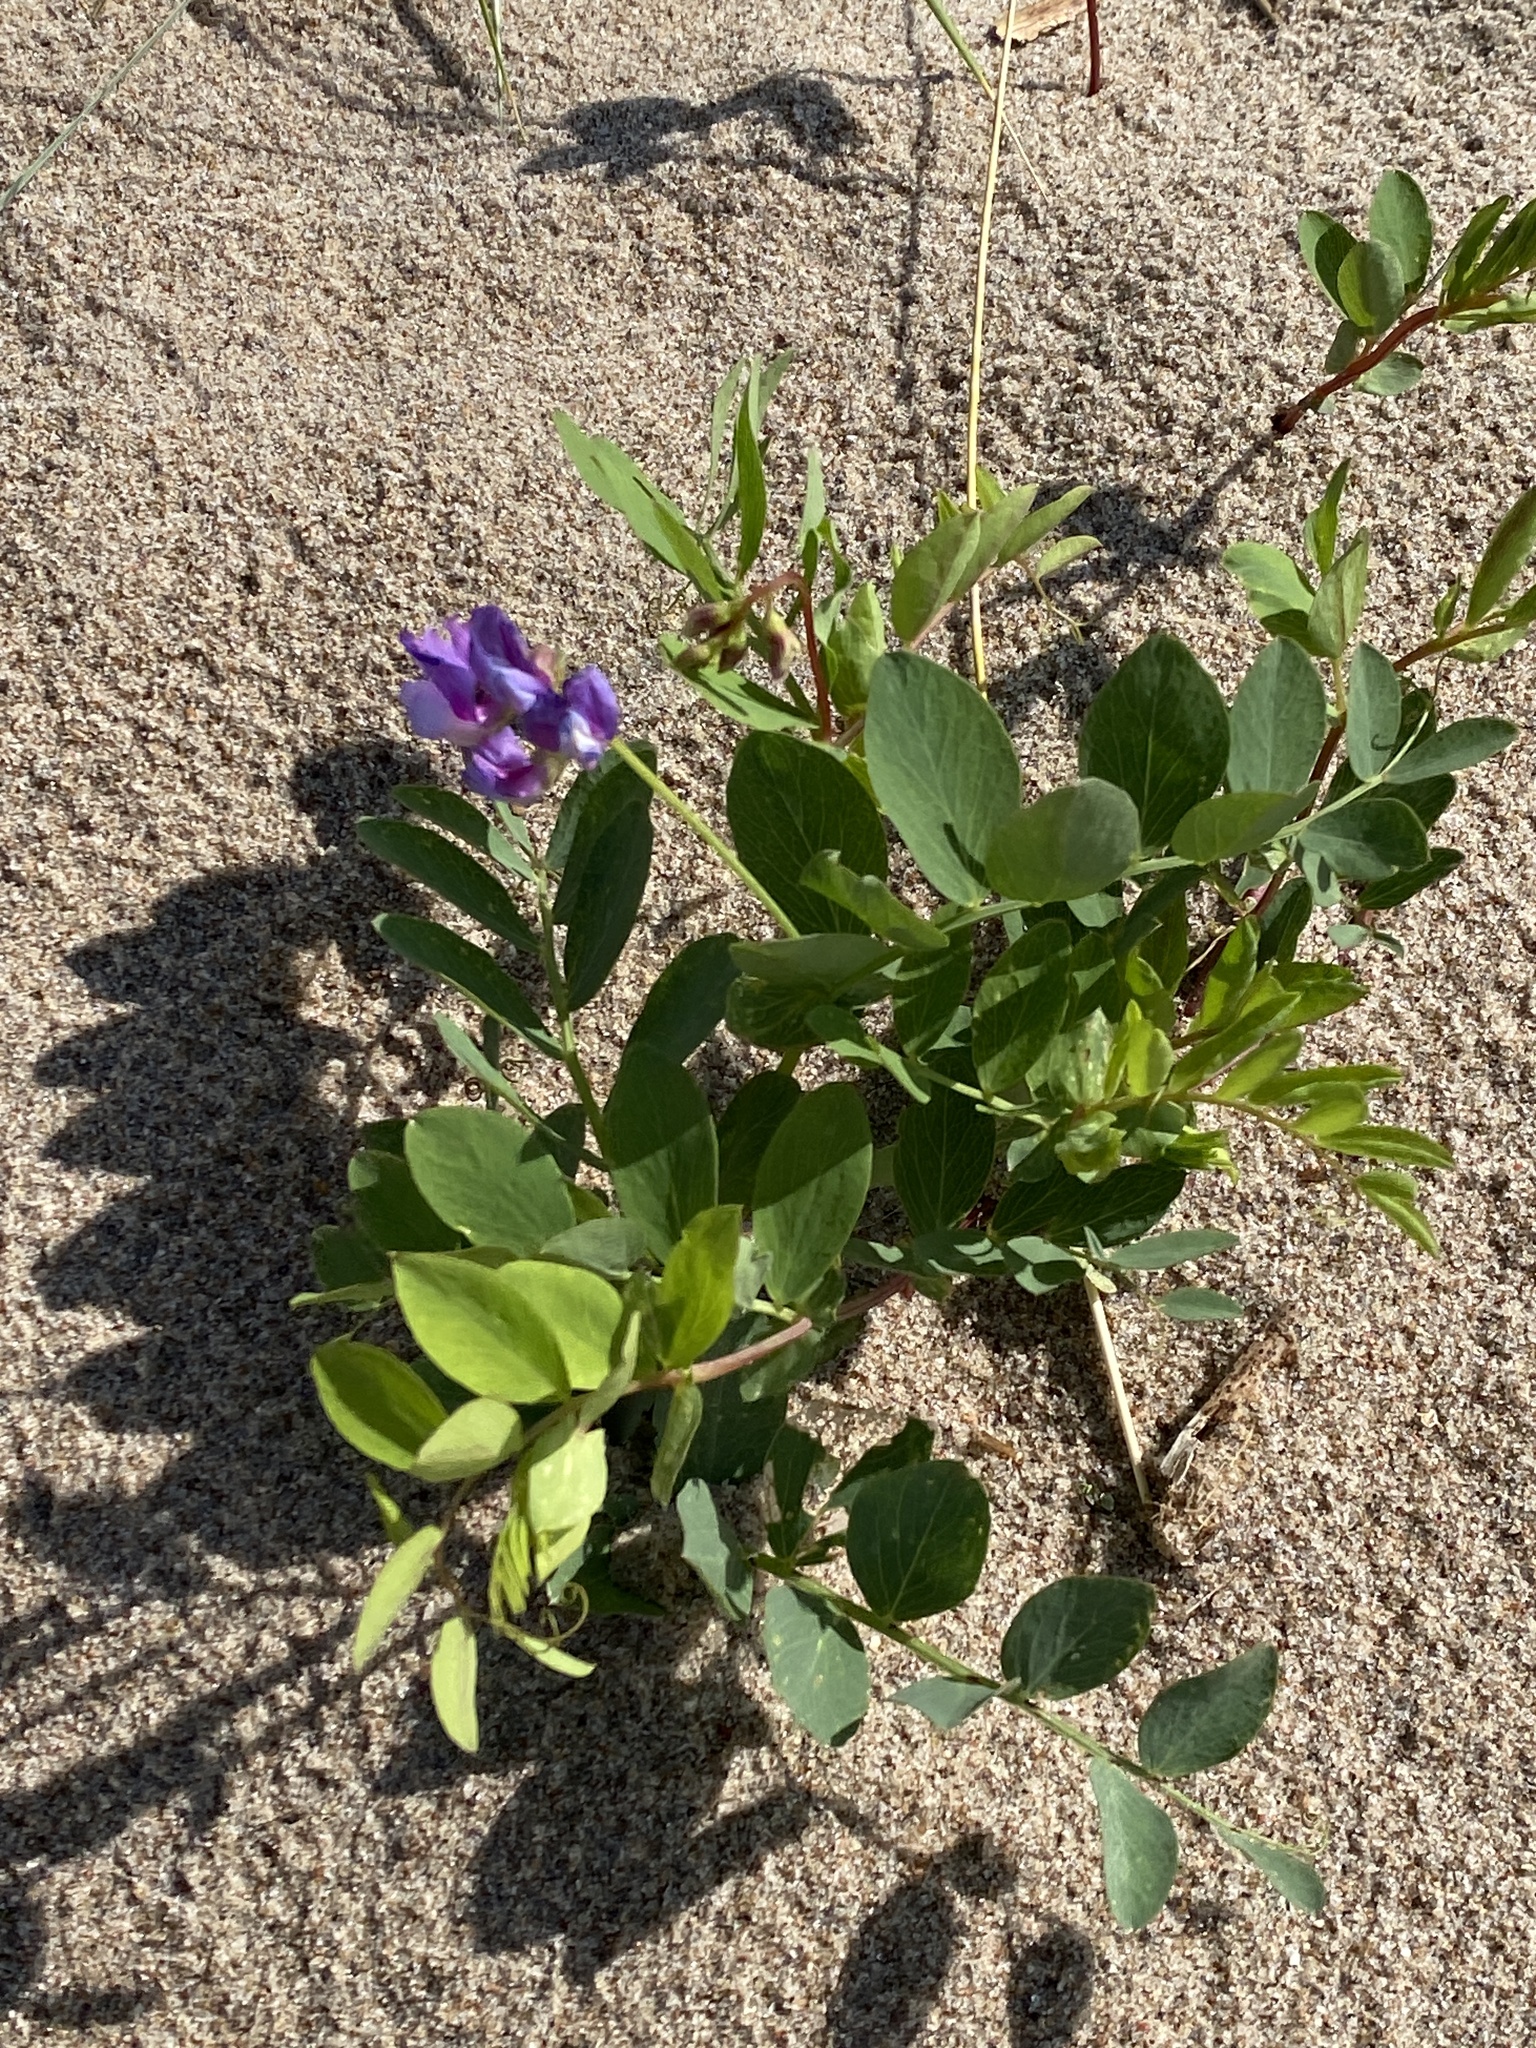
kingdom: Plantae
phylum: Tracheophyta
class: Magnoliopsida
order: Fabales
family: Fabaceae
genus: Lathyrus
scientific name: Lathyrus japonicus
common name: Sea pea
